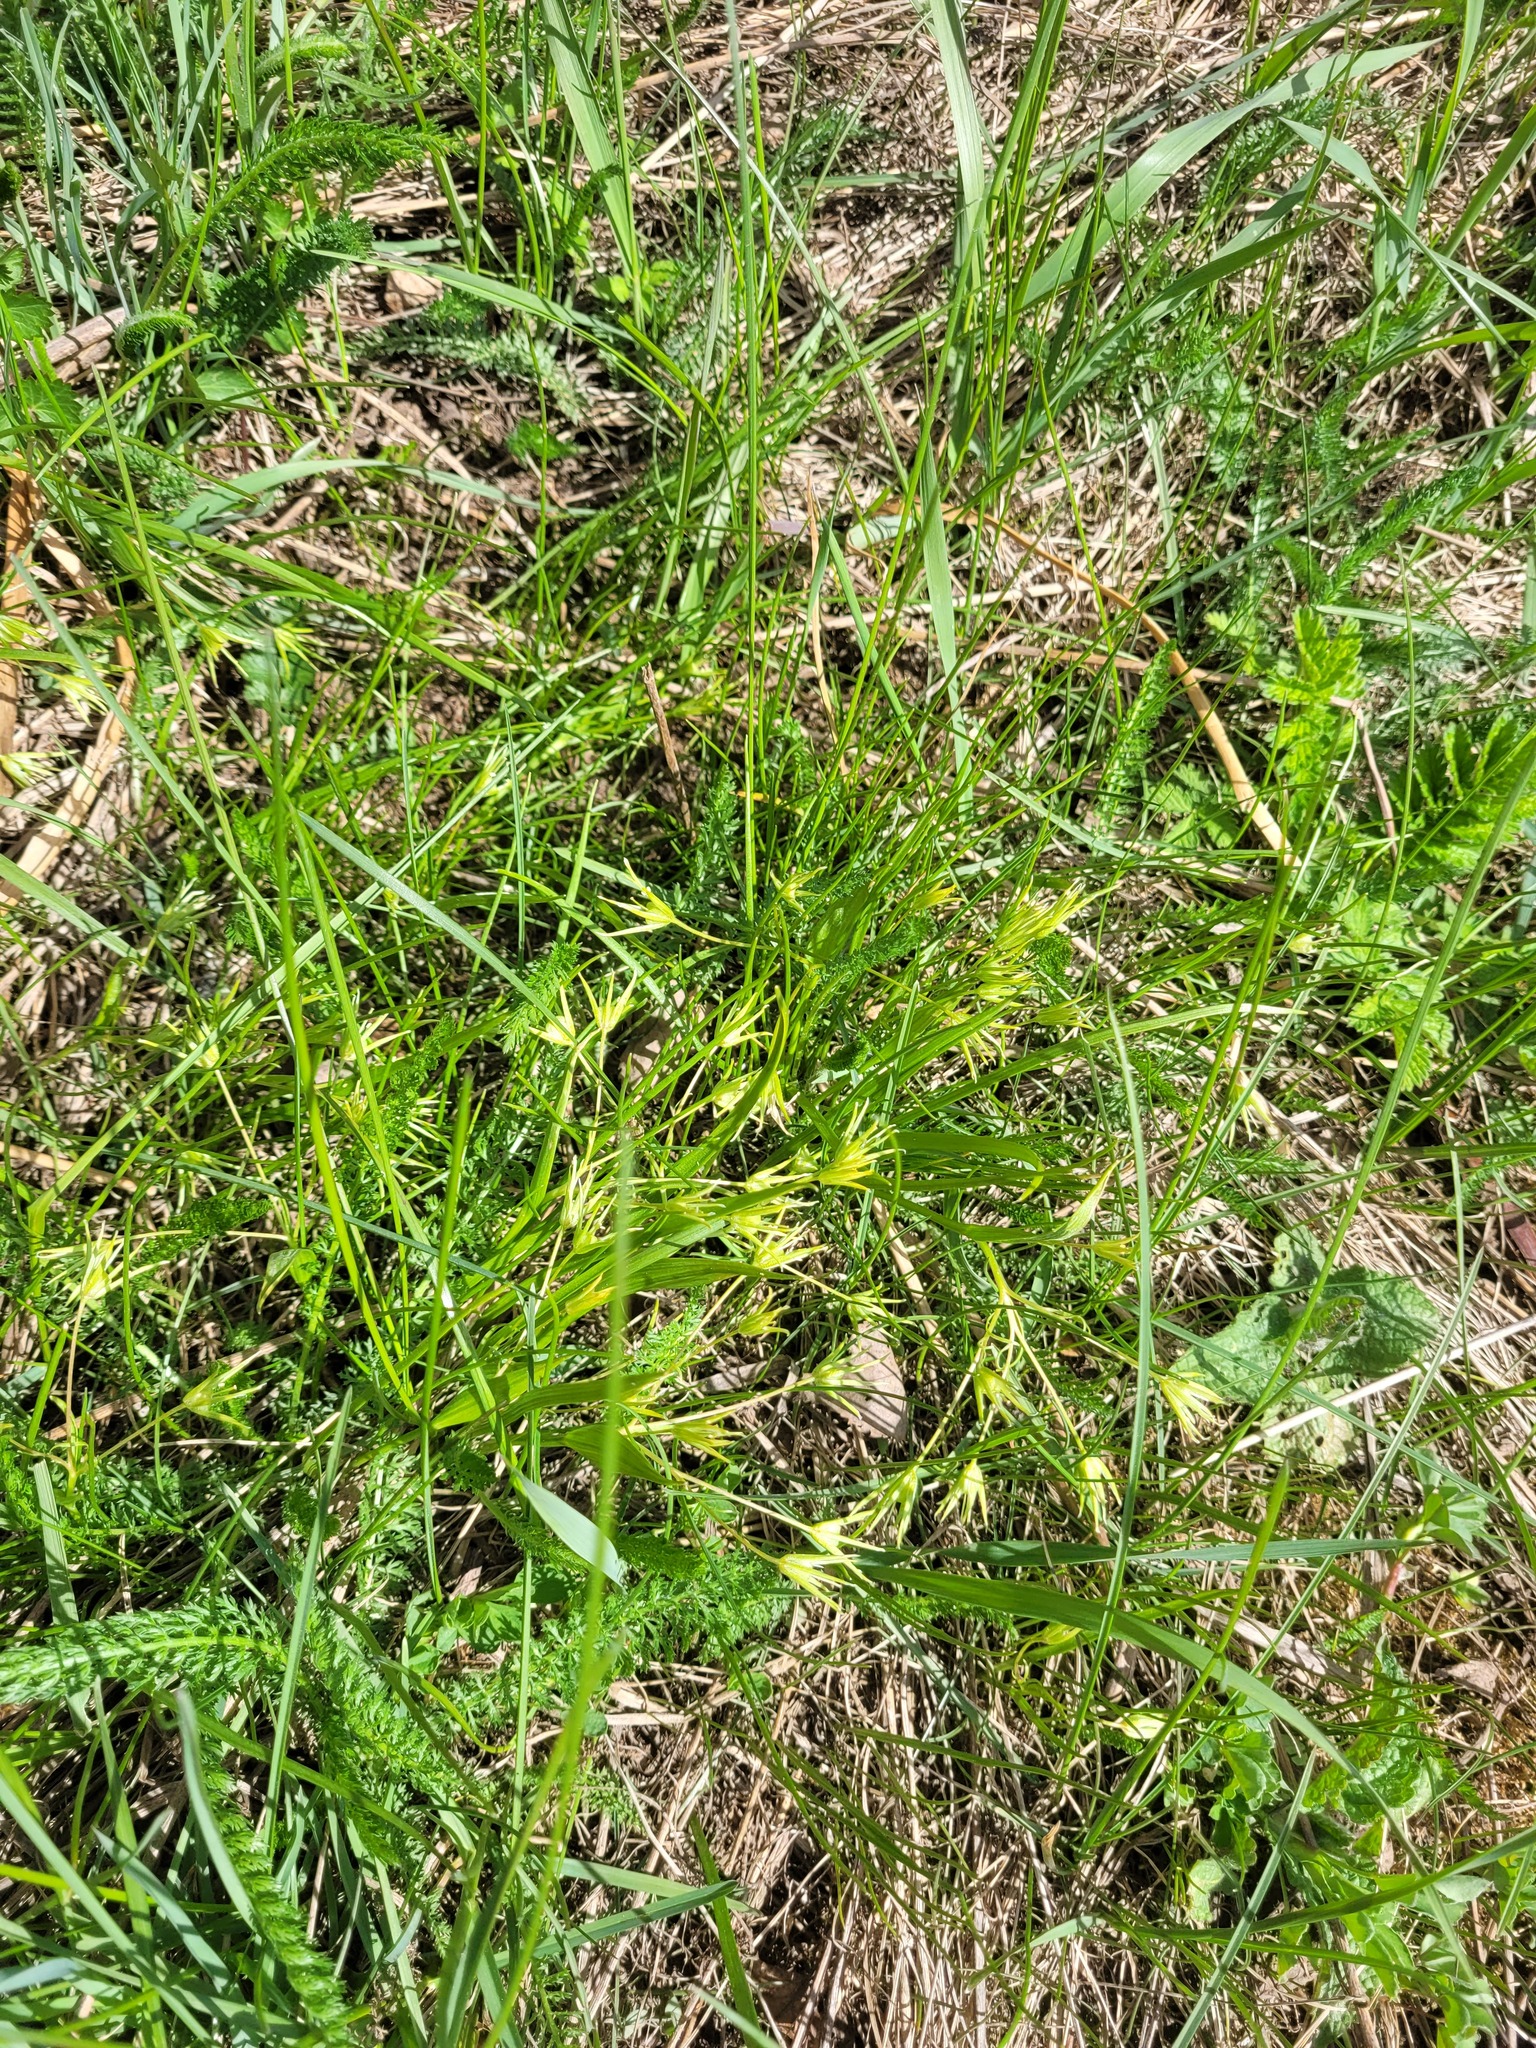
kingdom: Plantae
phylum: Tracheophyta
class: Liliopsida
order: Liliales
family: Liliaceae
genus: Gagea
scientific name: Gagea minima
